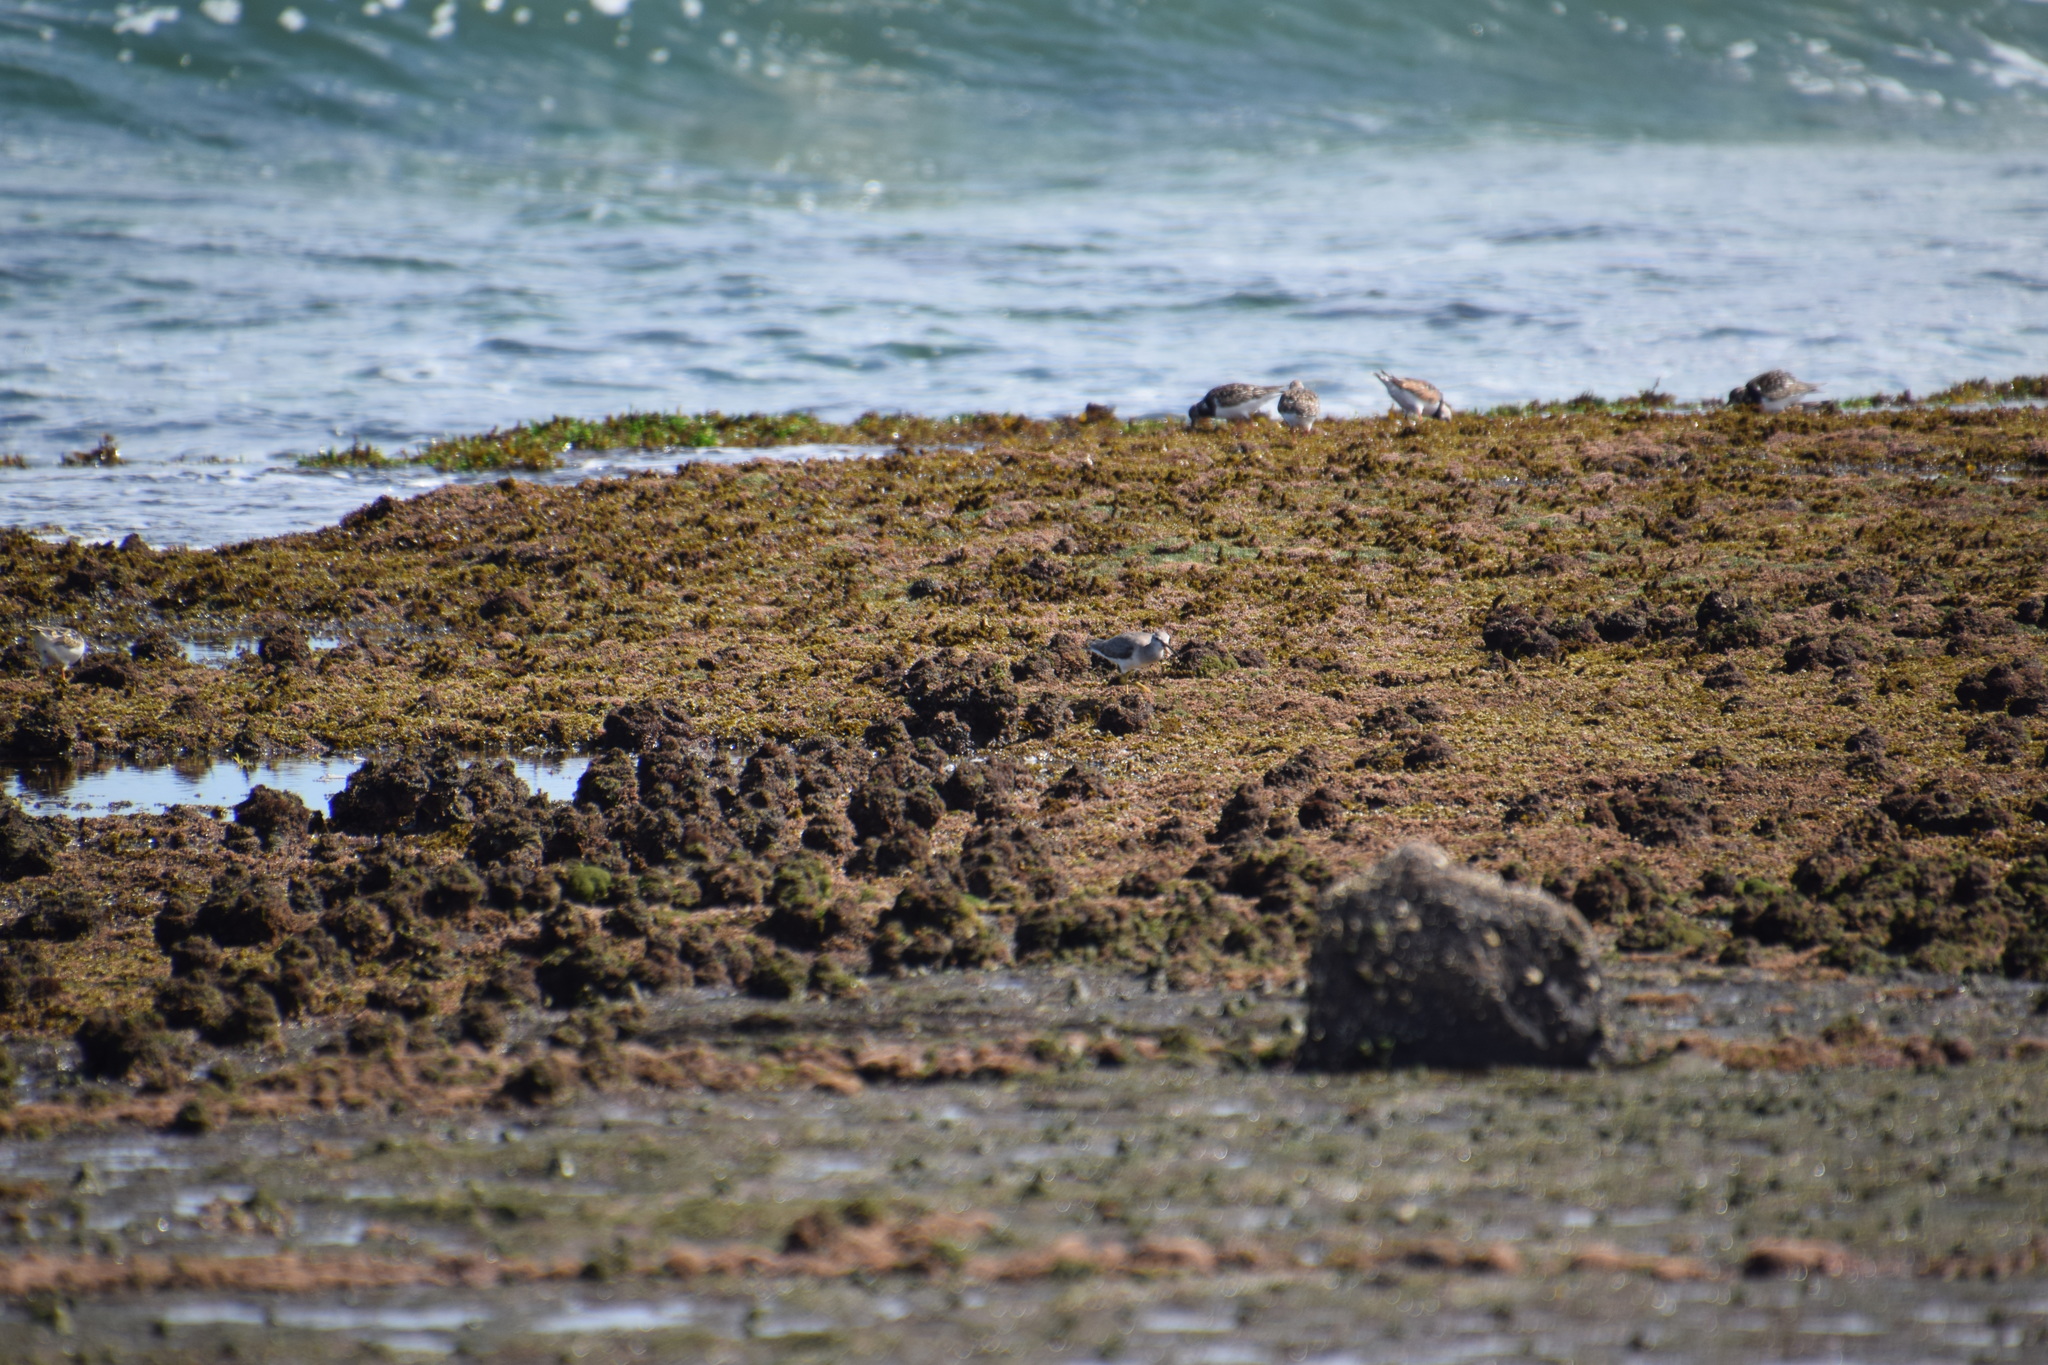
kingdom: Animalia
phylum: Chordata
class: Aves
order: Charadriiformes
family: Scolopacidae
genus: Tringa
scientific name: Tringa brevipes
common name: Grey-tailed tattler
